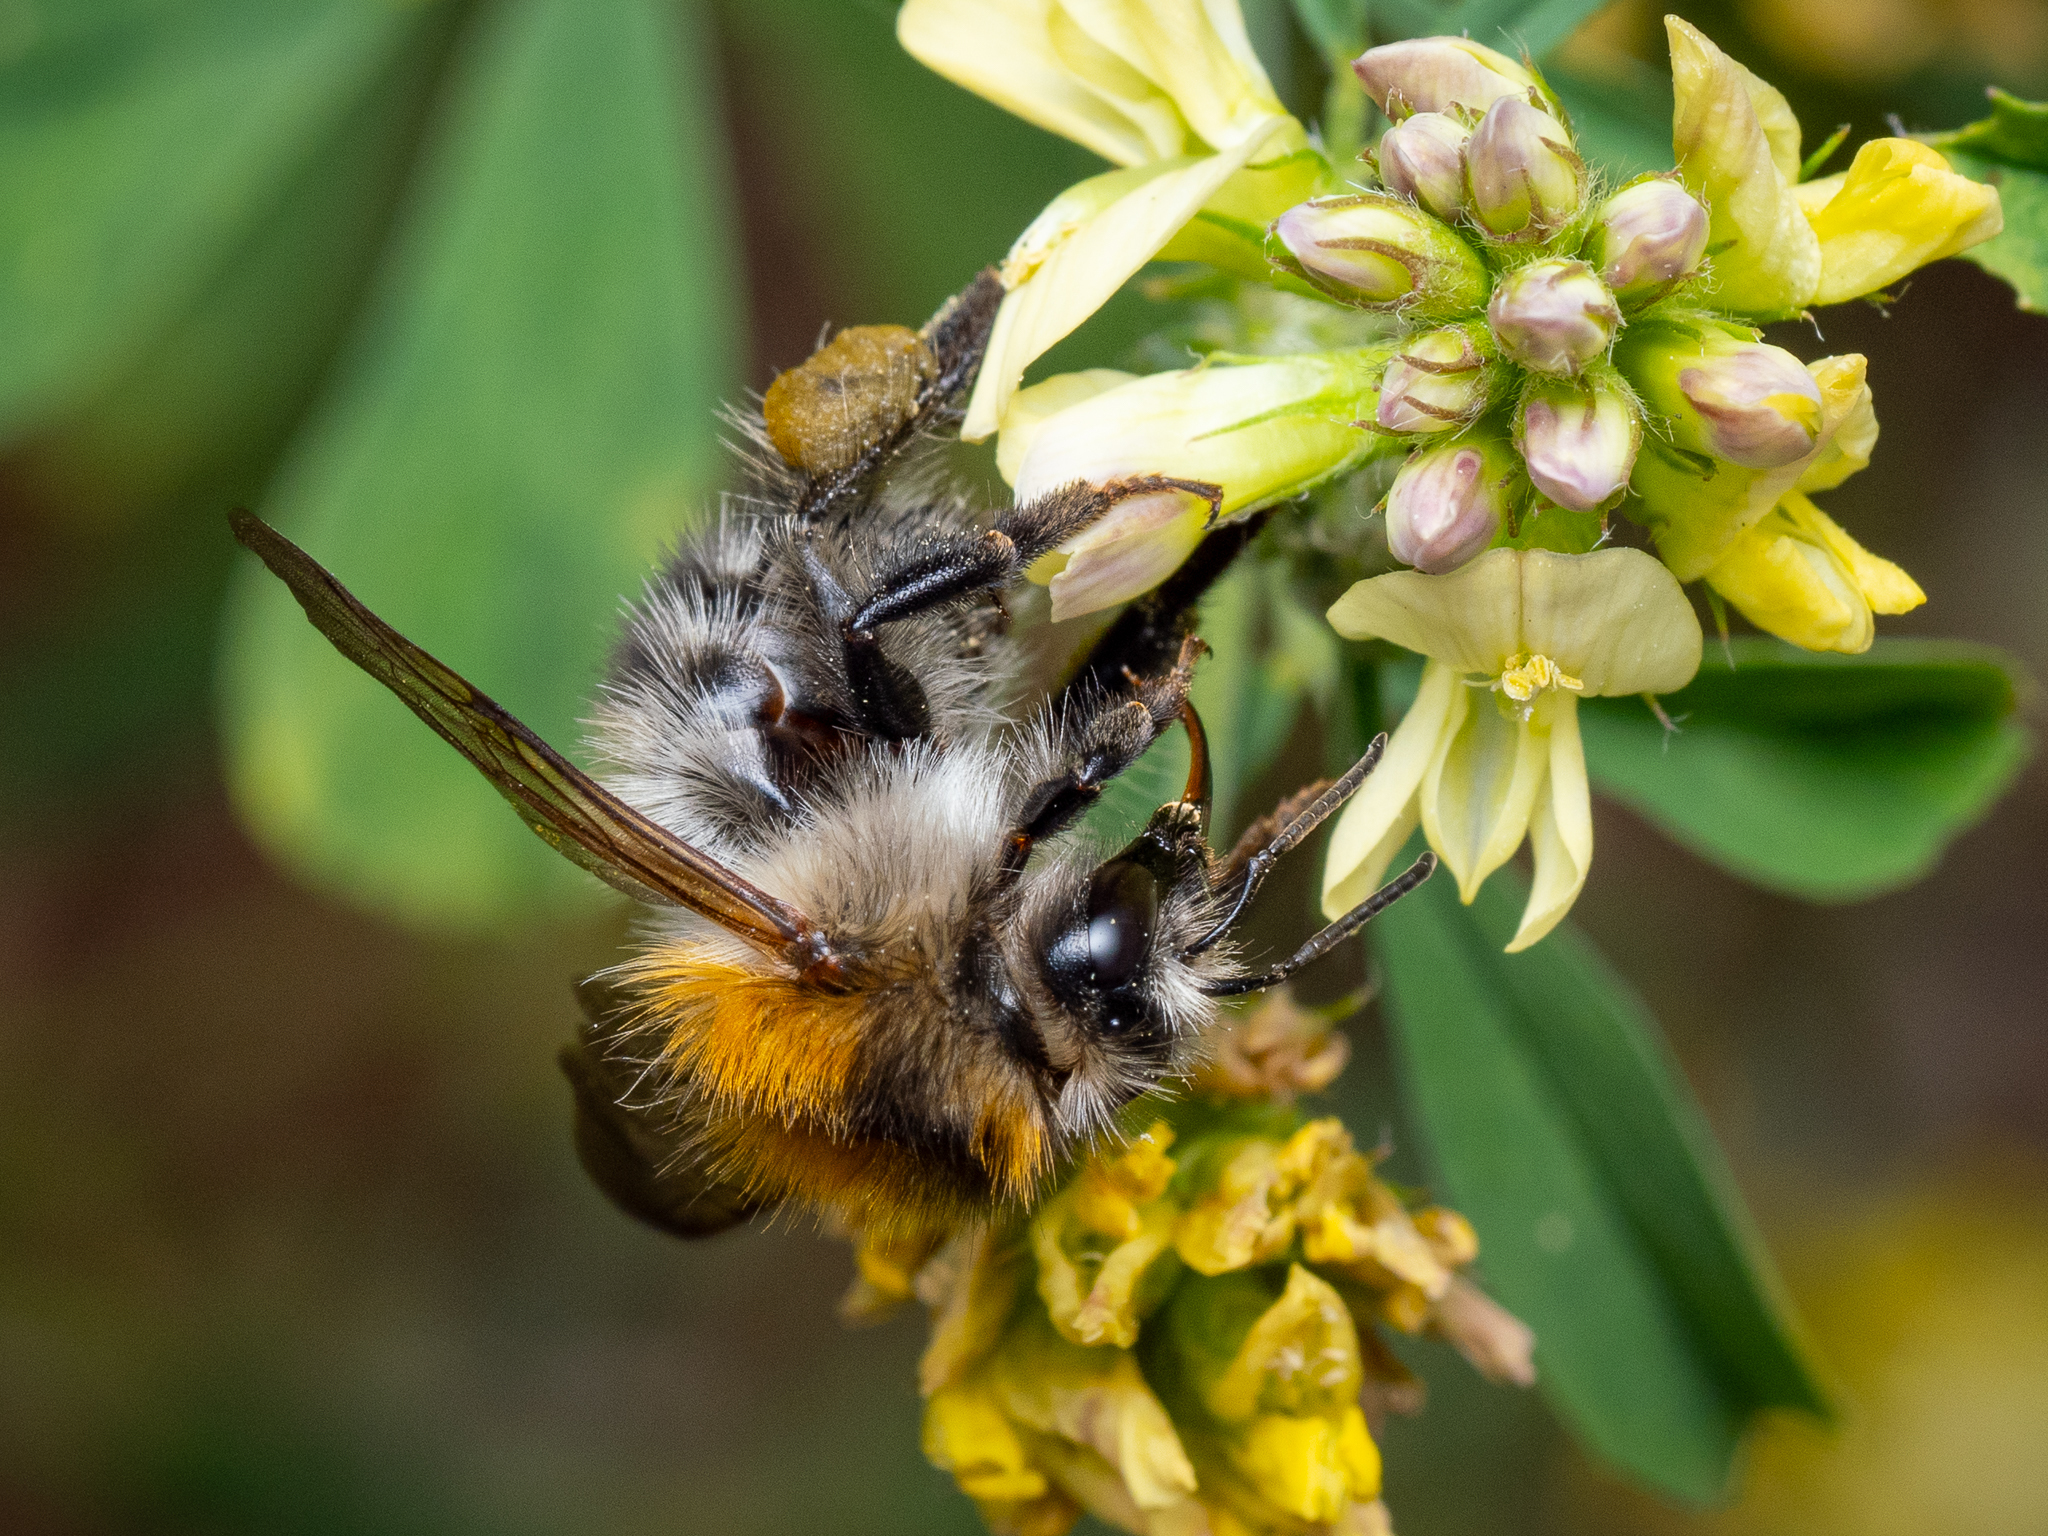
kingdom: Animalia
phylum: Arthropoda
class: Insecta
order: Hymenoptera
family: Apidae
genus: Bombus
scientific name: Bombus pascuorum
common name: Common carder bee
